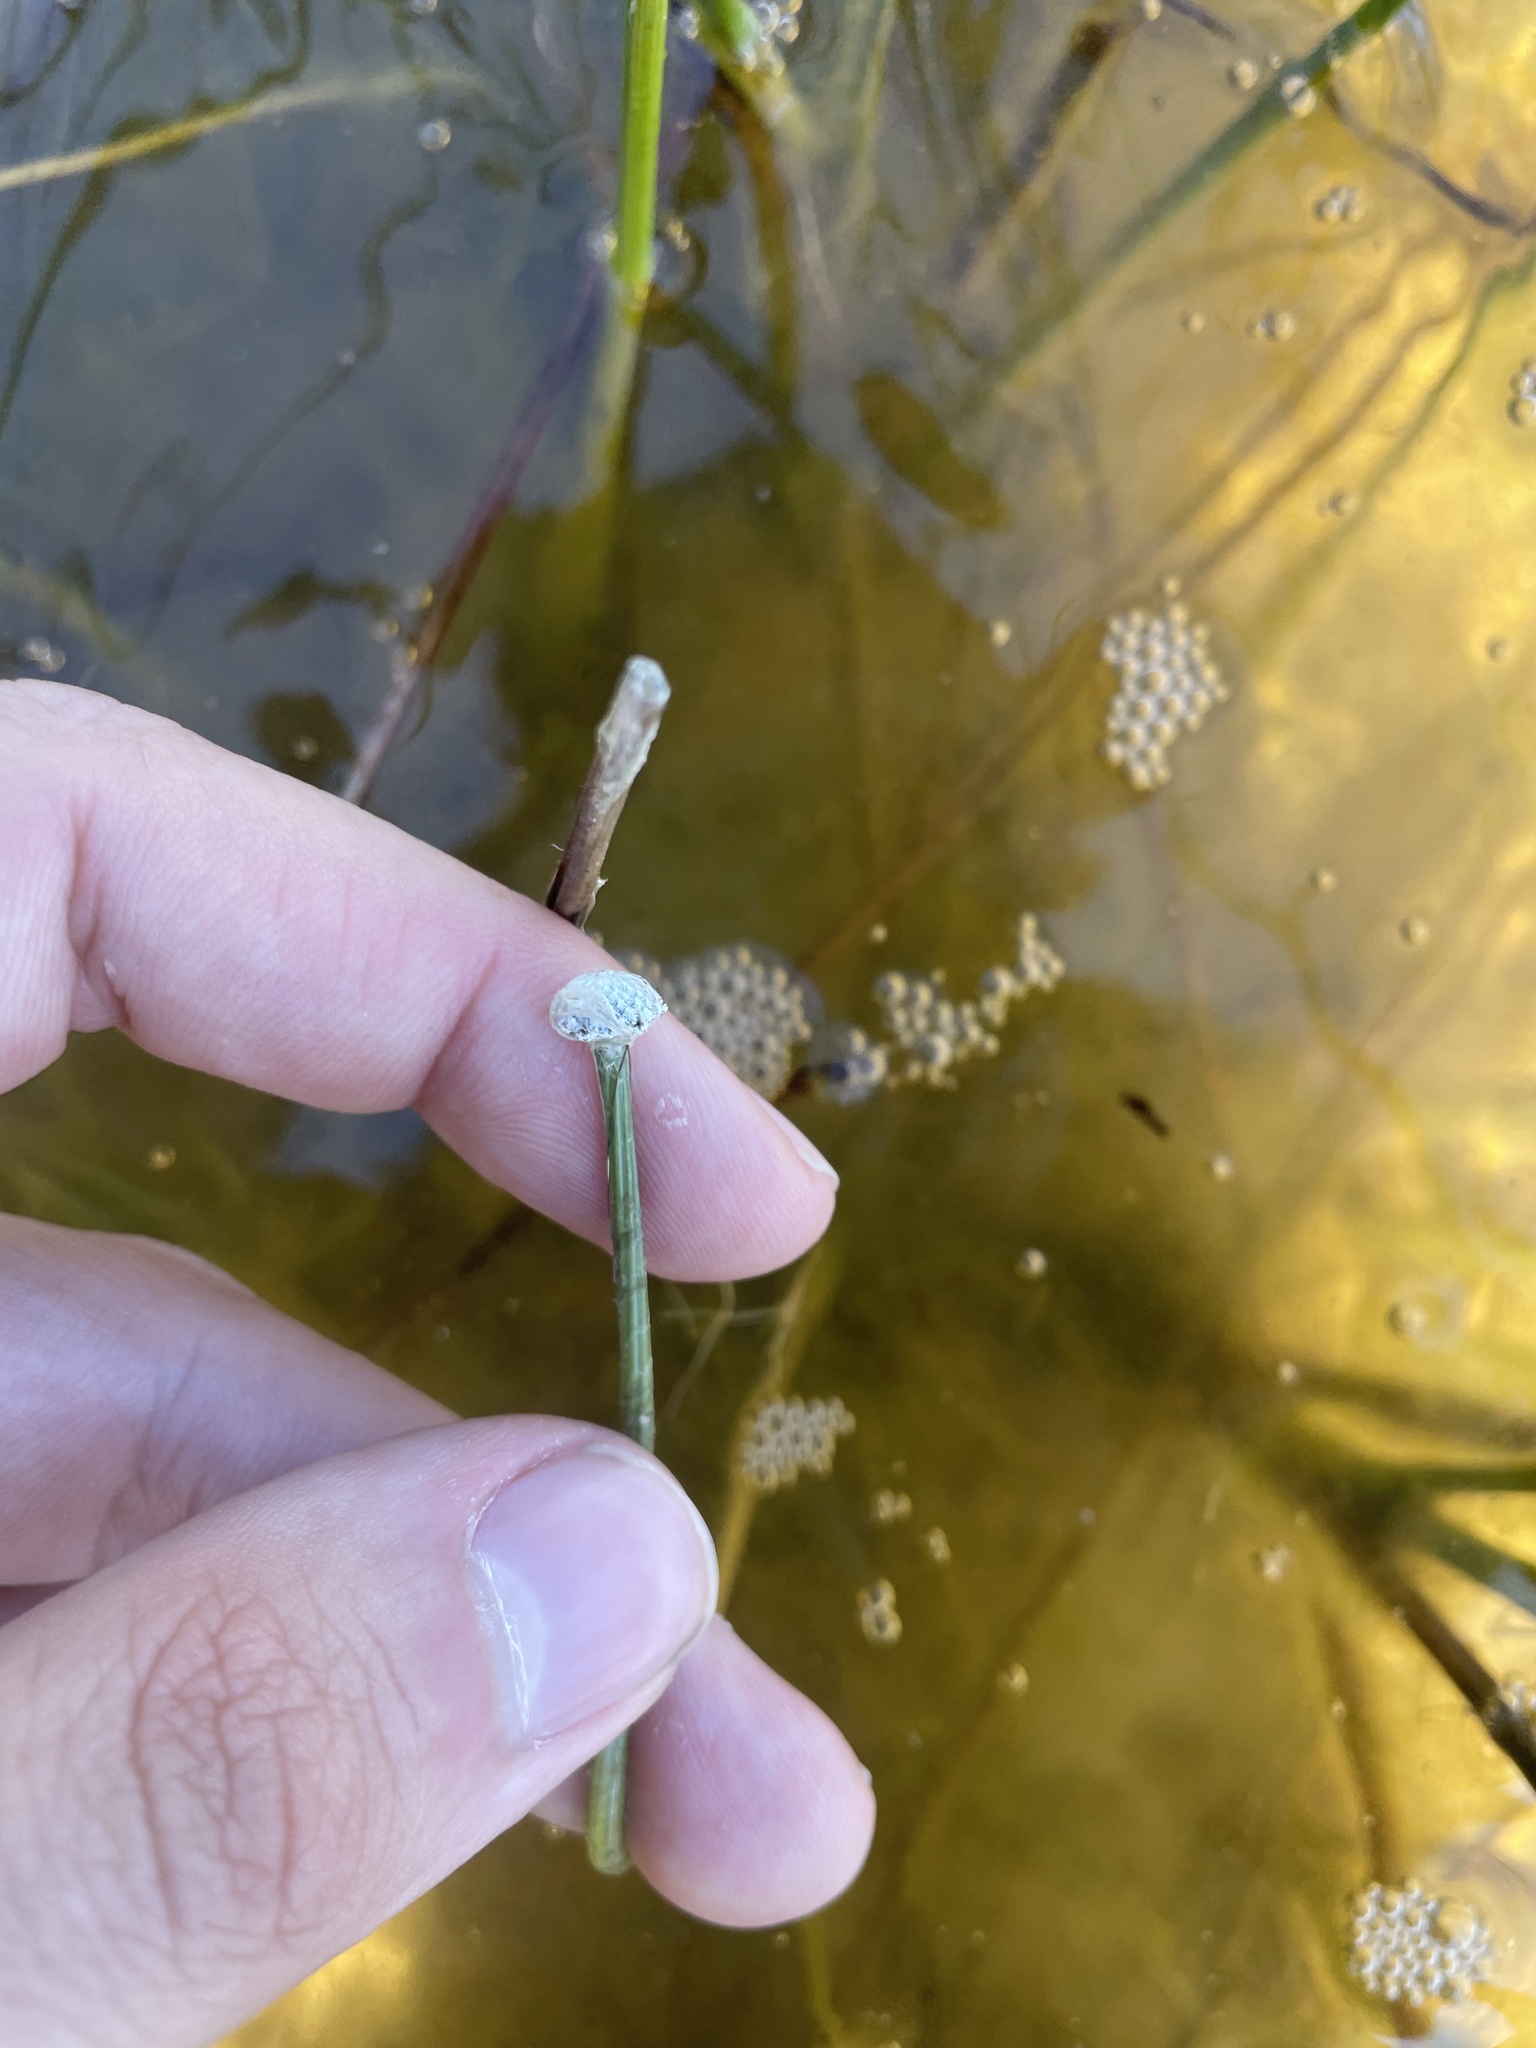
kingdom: Plantae
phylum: Tracheophyta
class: Liliopsida
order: Poales
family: Eriocaulaceae
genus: Eriocaulon
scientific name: Eriocaulon aquaticum
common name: Pipewort
